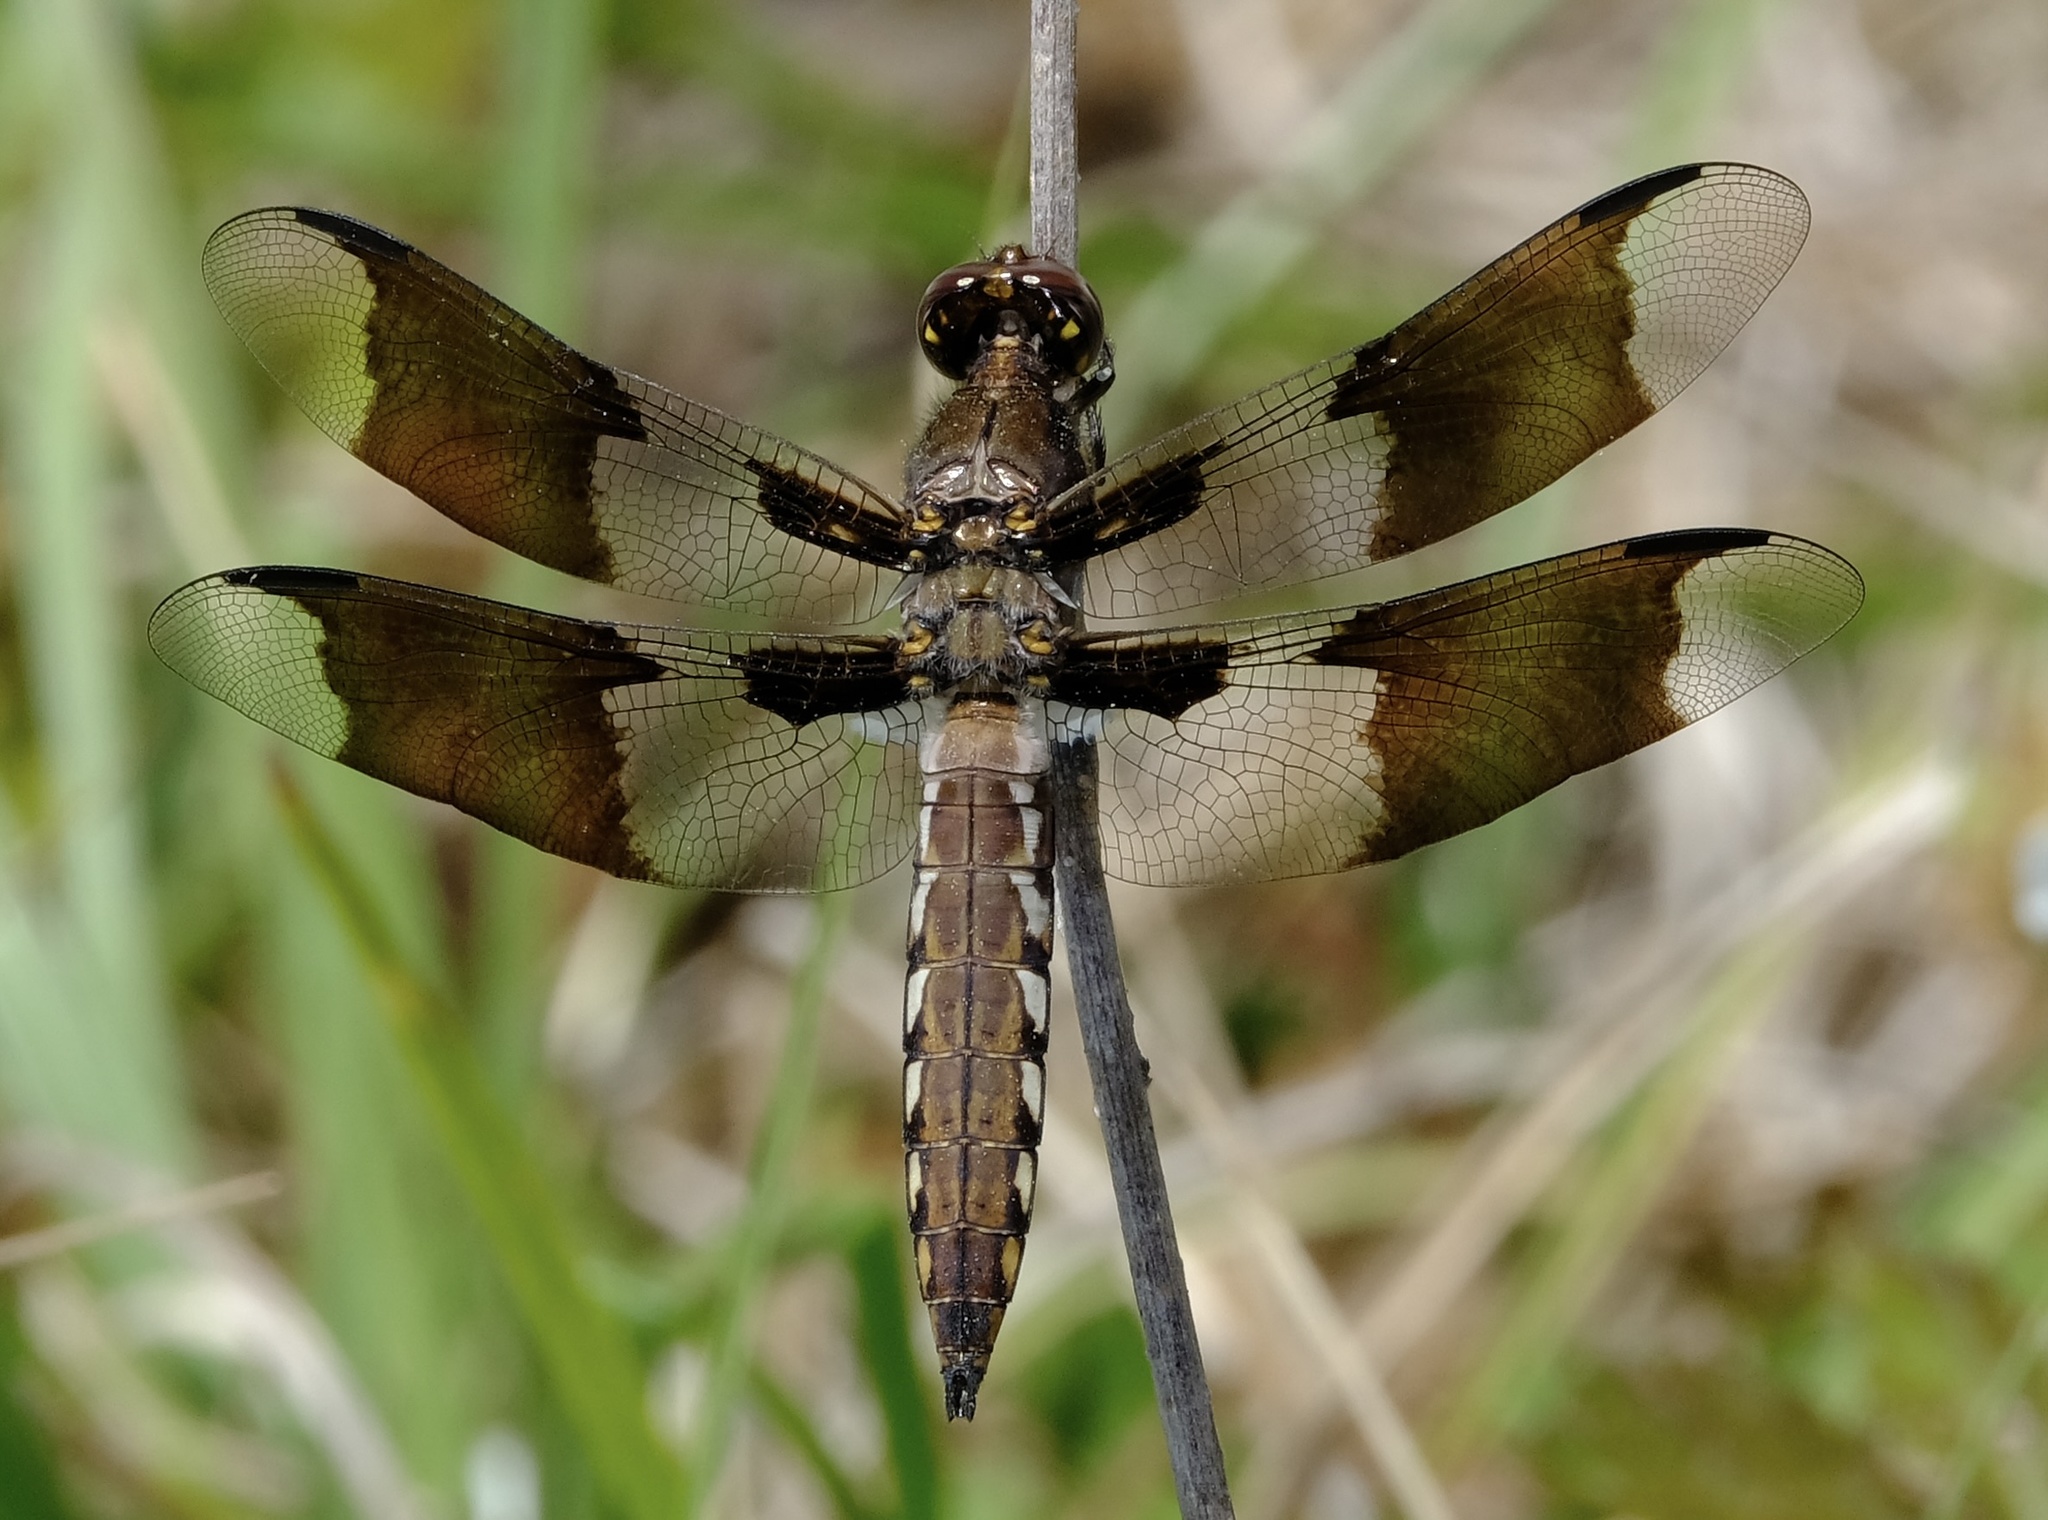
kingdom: Animalia
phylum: Arthropoda
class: Insecta
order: Odonata
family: Libellulidae
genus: Plathemis
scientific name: Plathemis lydia
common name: Common whitetail
